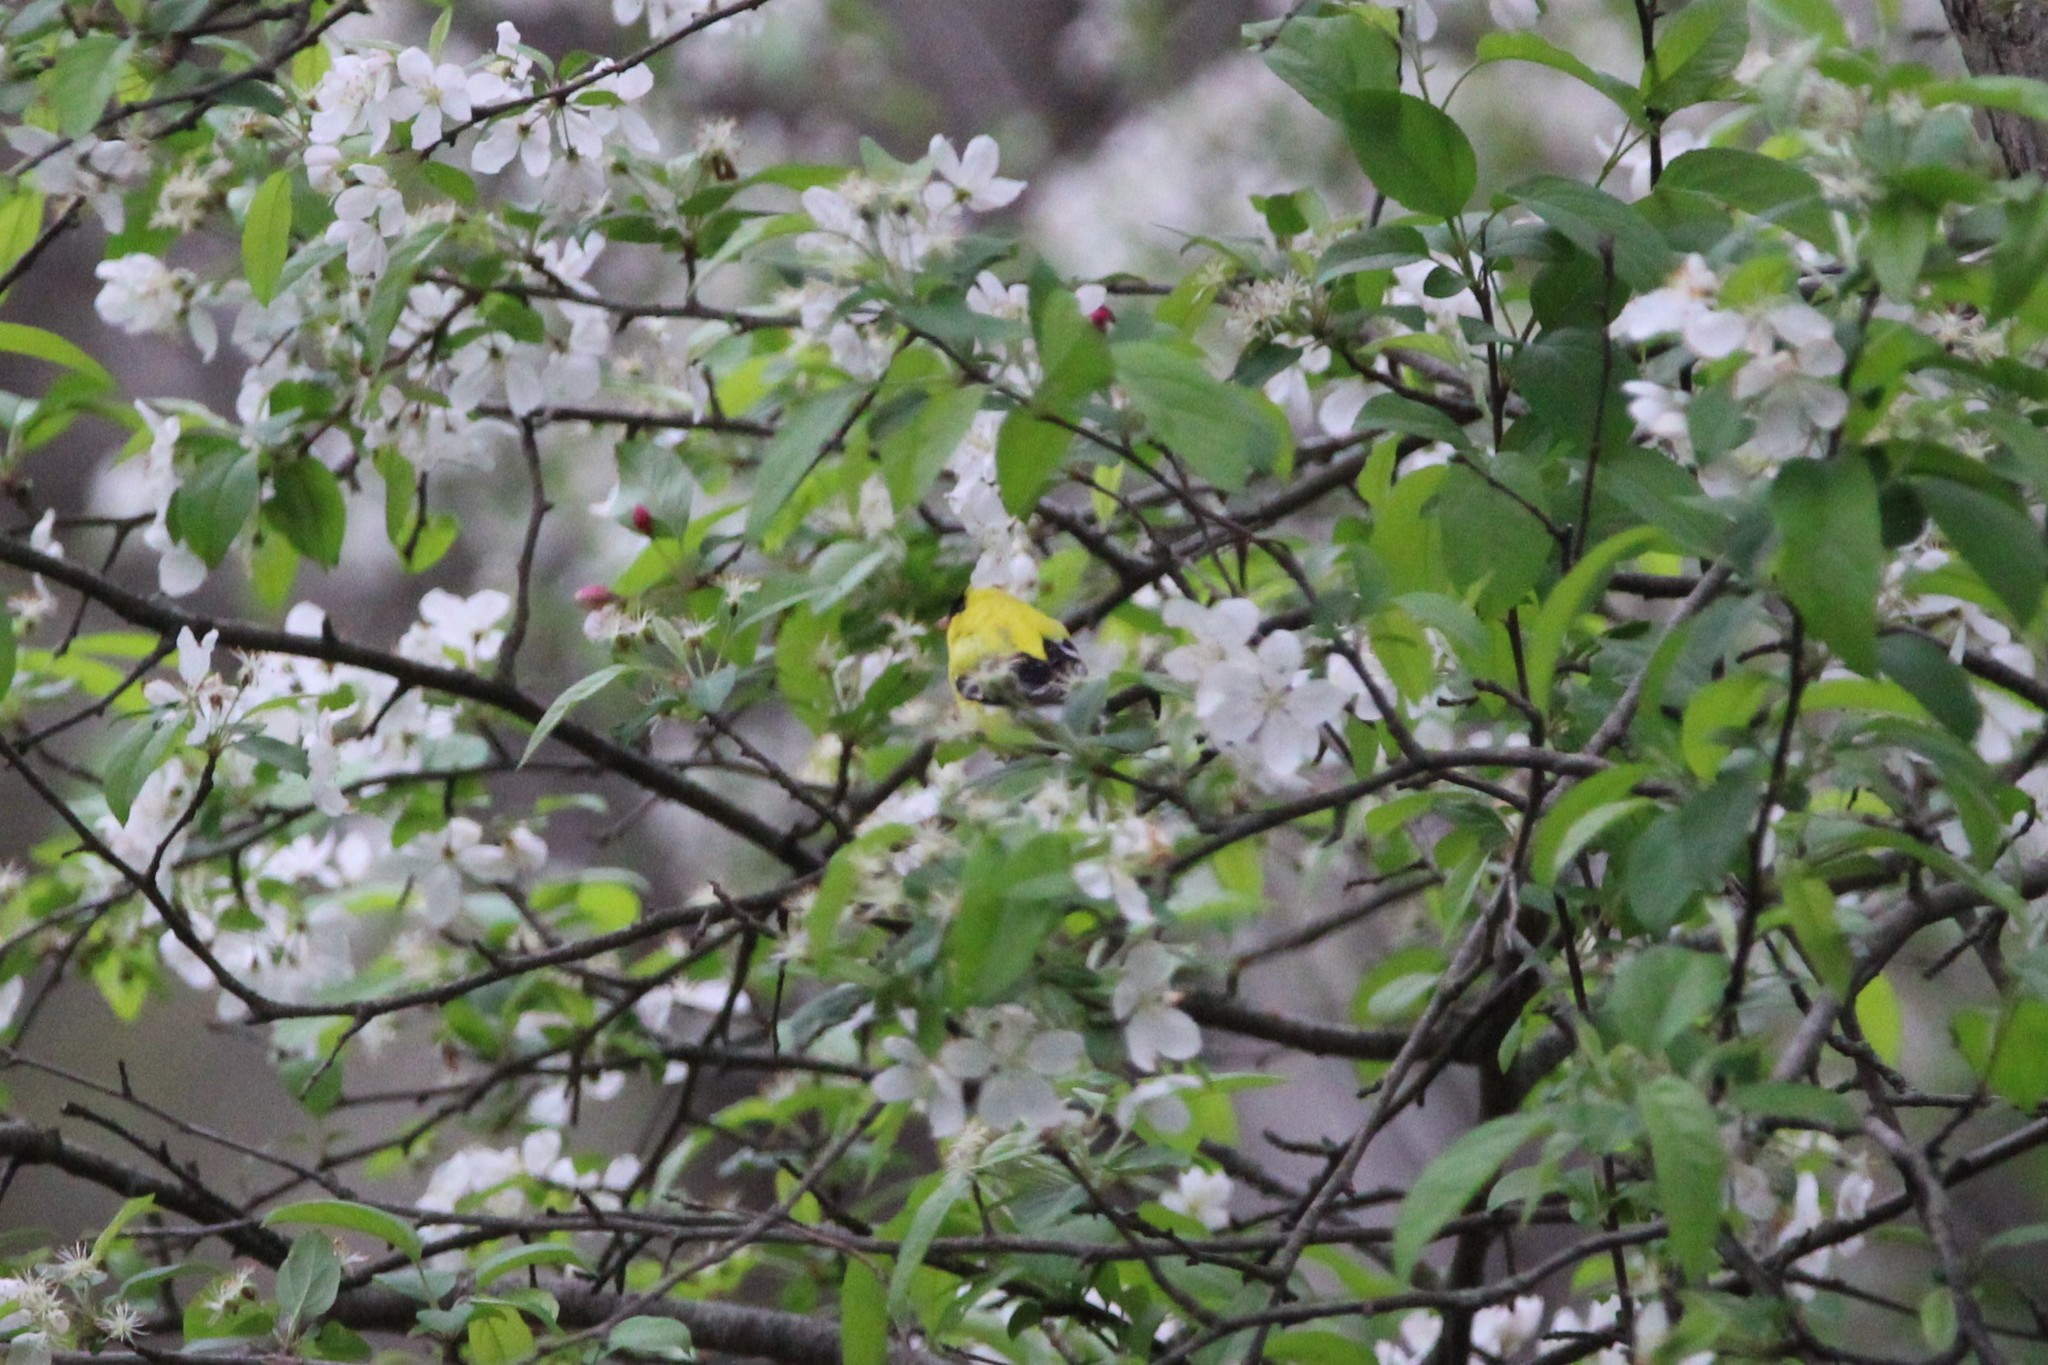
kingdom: Animalia
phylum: Chordata
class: Aves
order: Passeriformes
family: Fringillidae
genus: Spinus
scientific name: Spinus tristis
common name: American goldfinch
